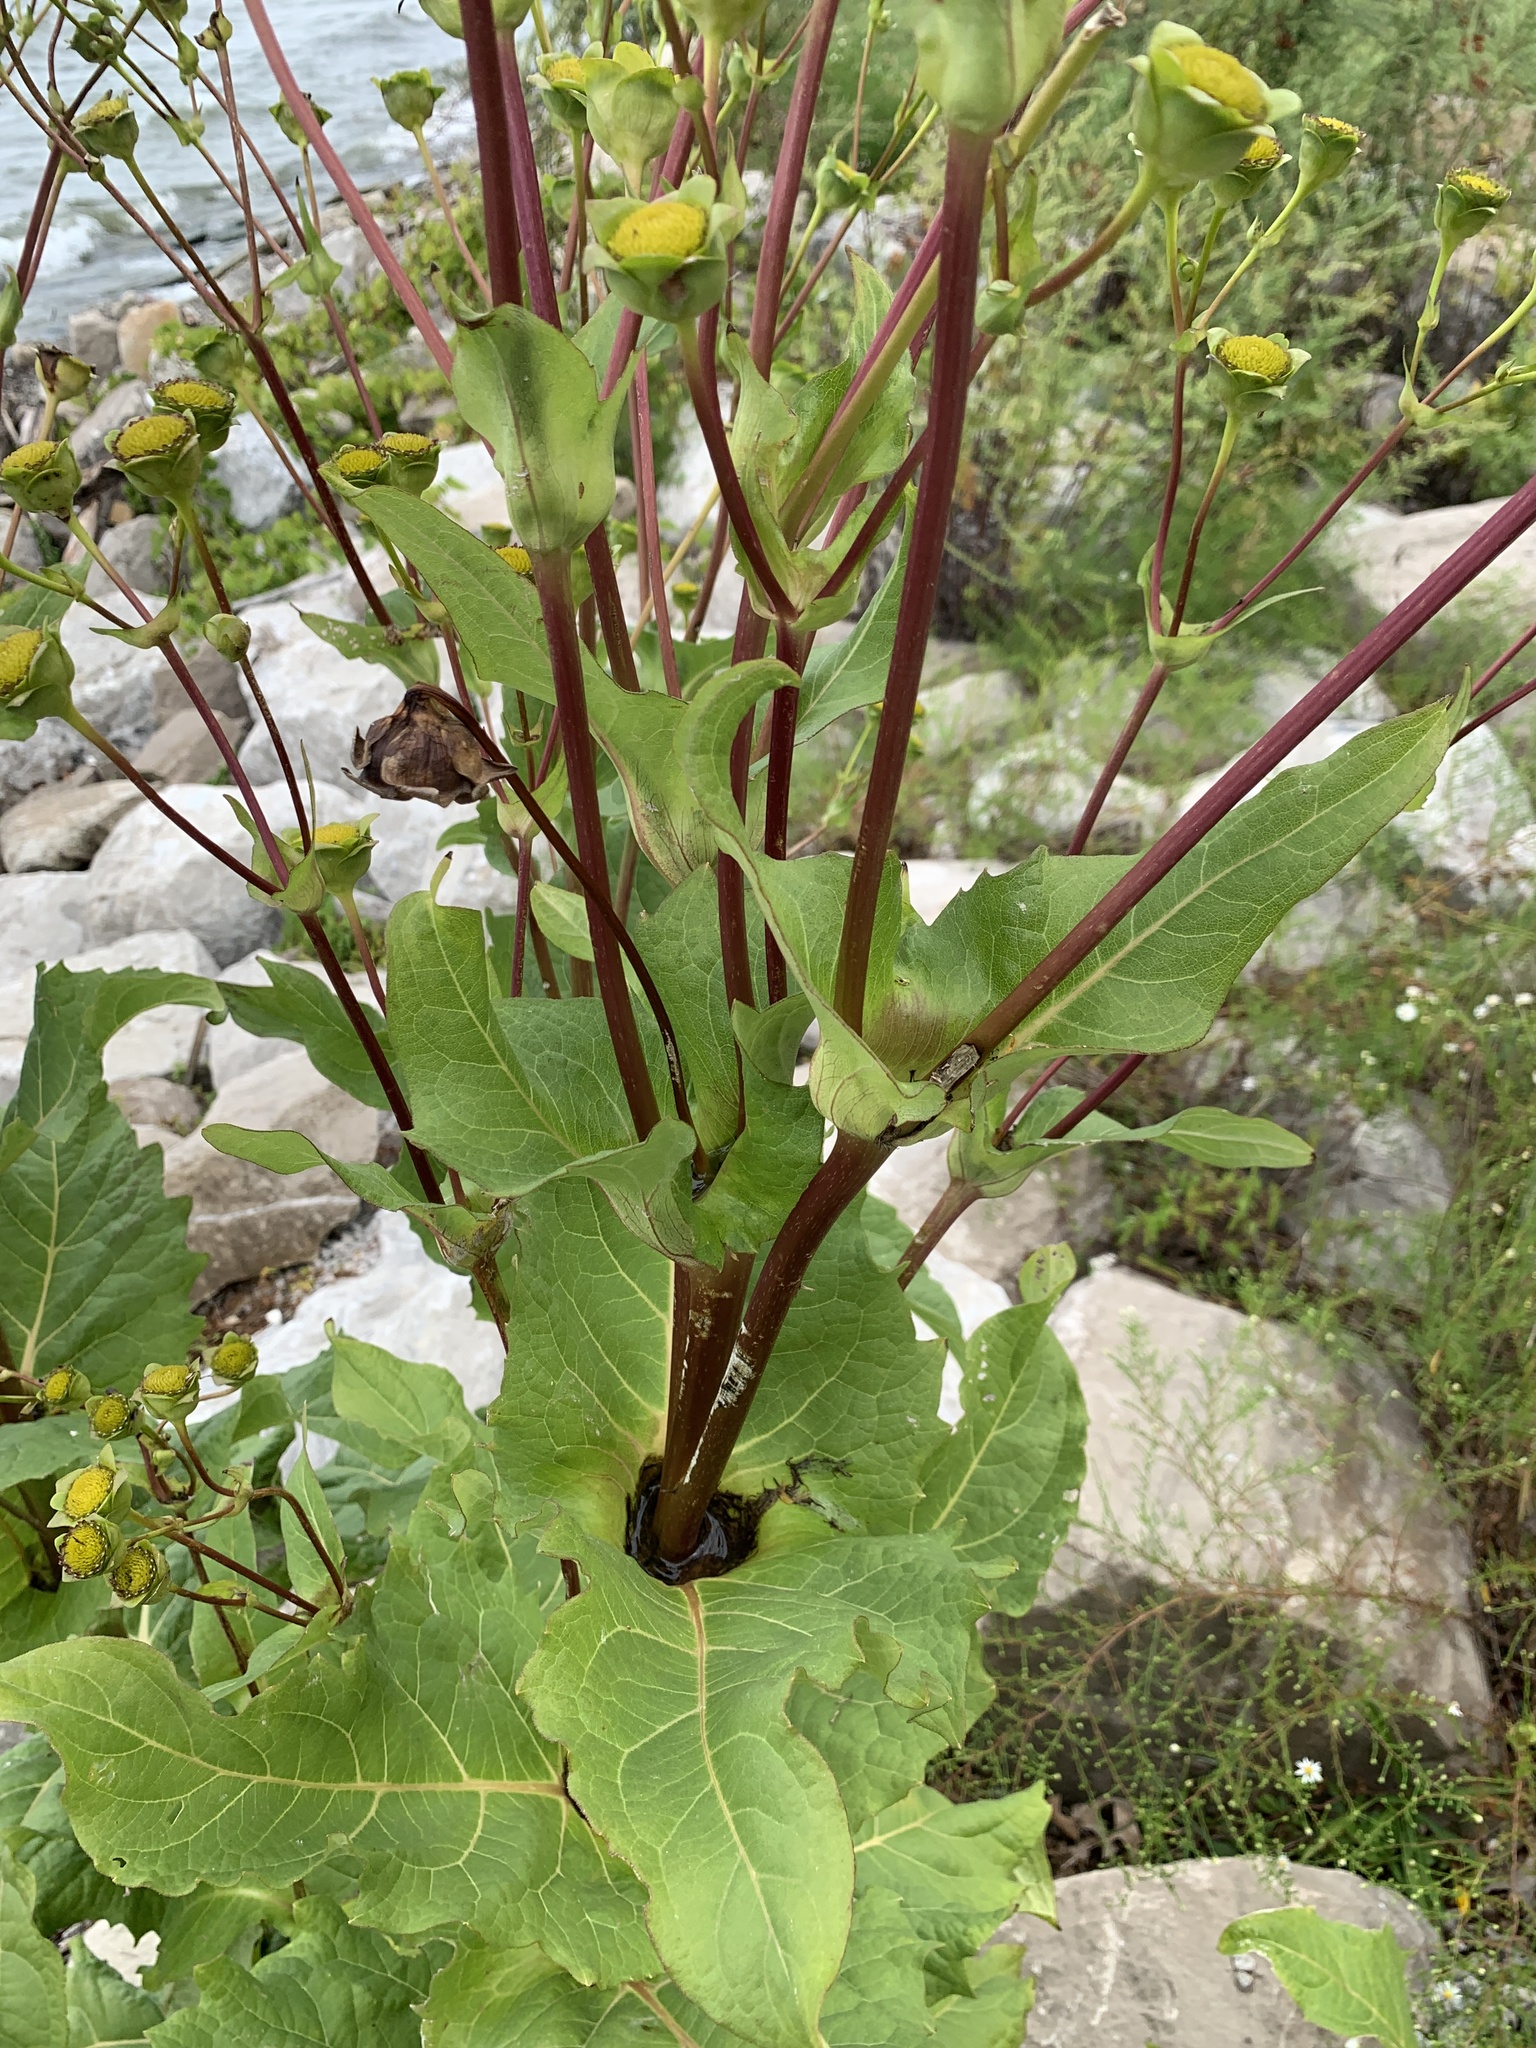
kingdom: Plantae
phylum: Tracheophyta
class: Magnoliopsida
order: Asterales
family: Asteraceae
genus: Silphium
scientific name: Silphium perfoliatum
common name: Cup-plant
